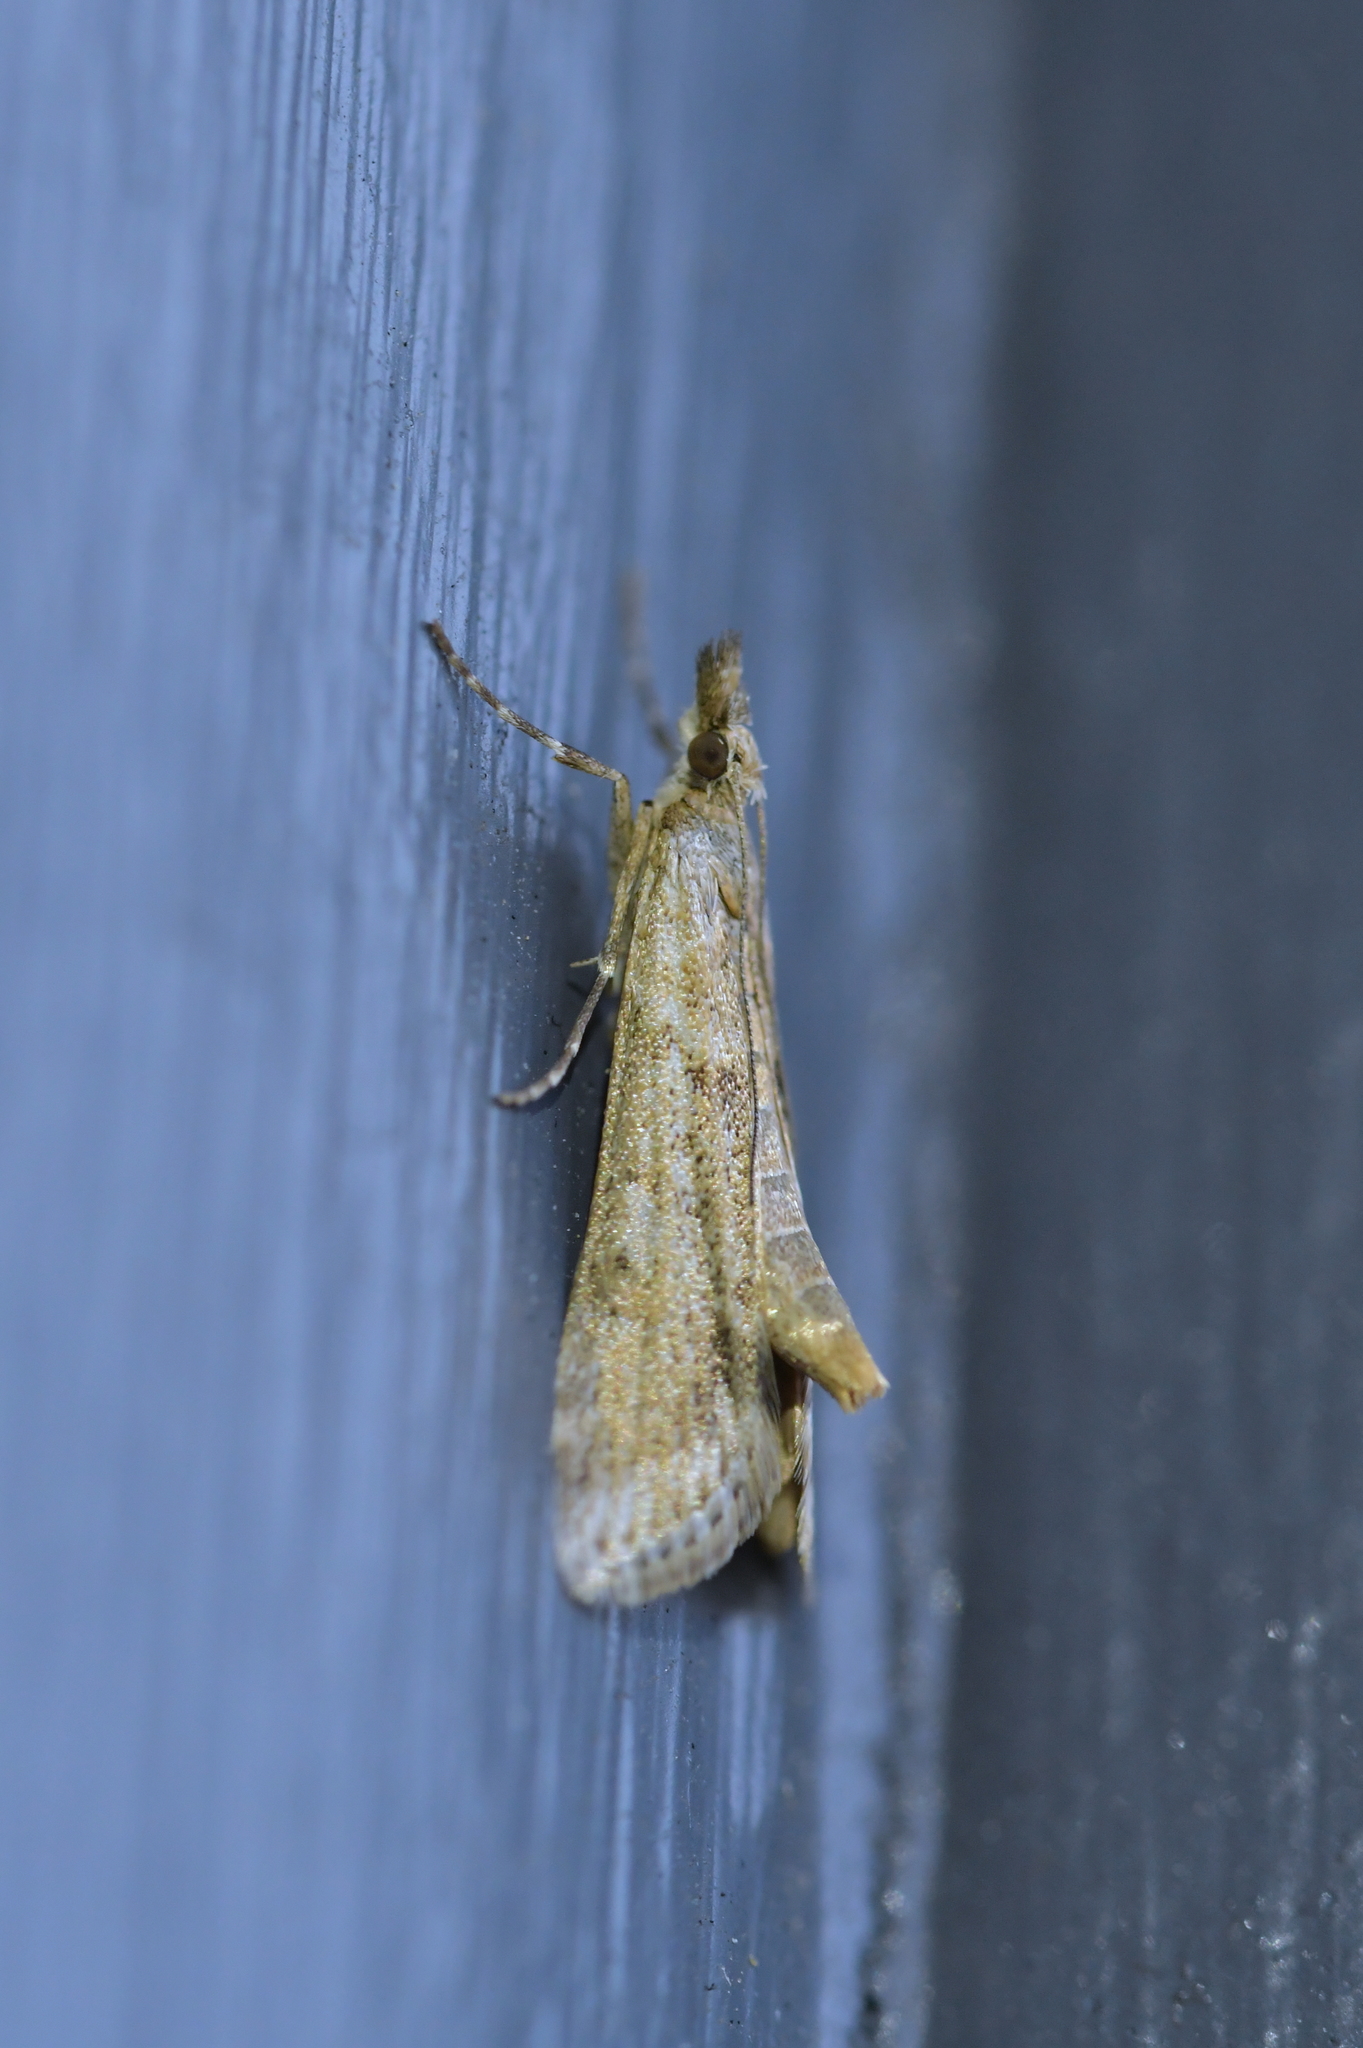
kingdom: Animalia
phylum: Arthropoda
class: Insecta
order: Lepidoptera
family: Crambidae
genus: Eudonia
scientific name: Eudonia leptalea
